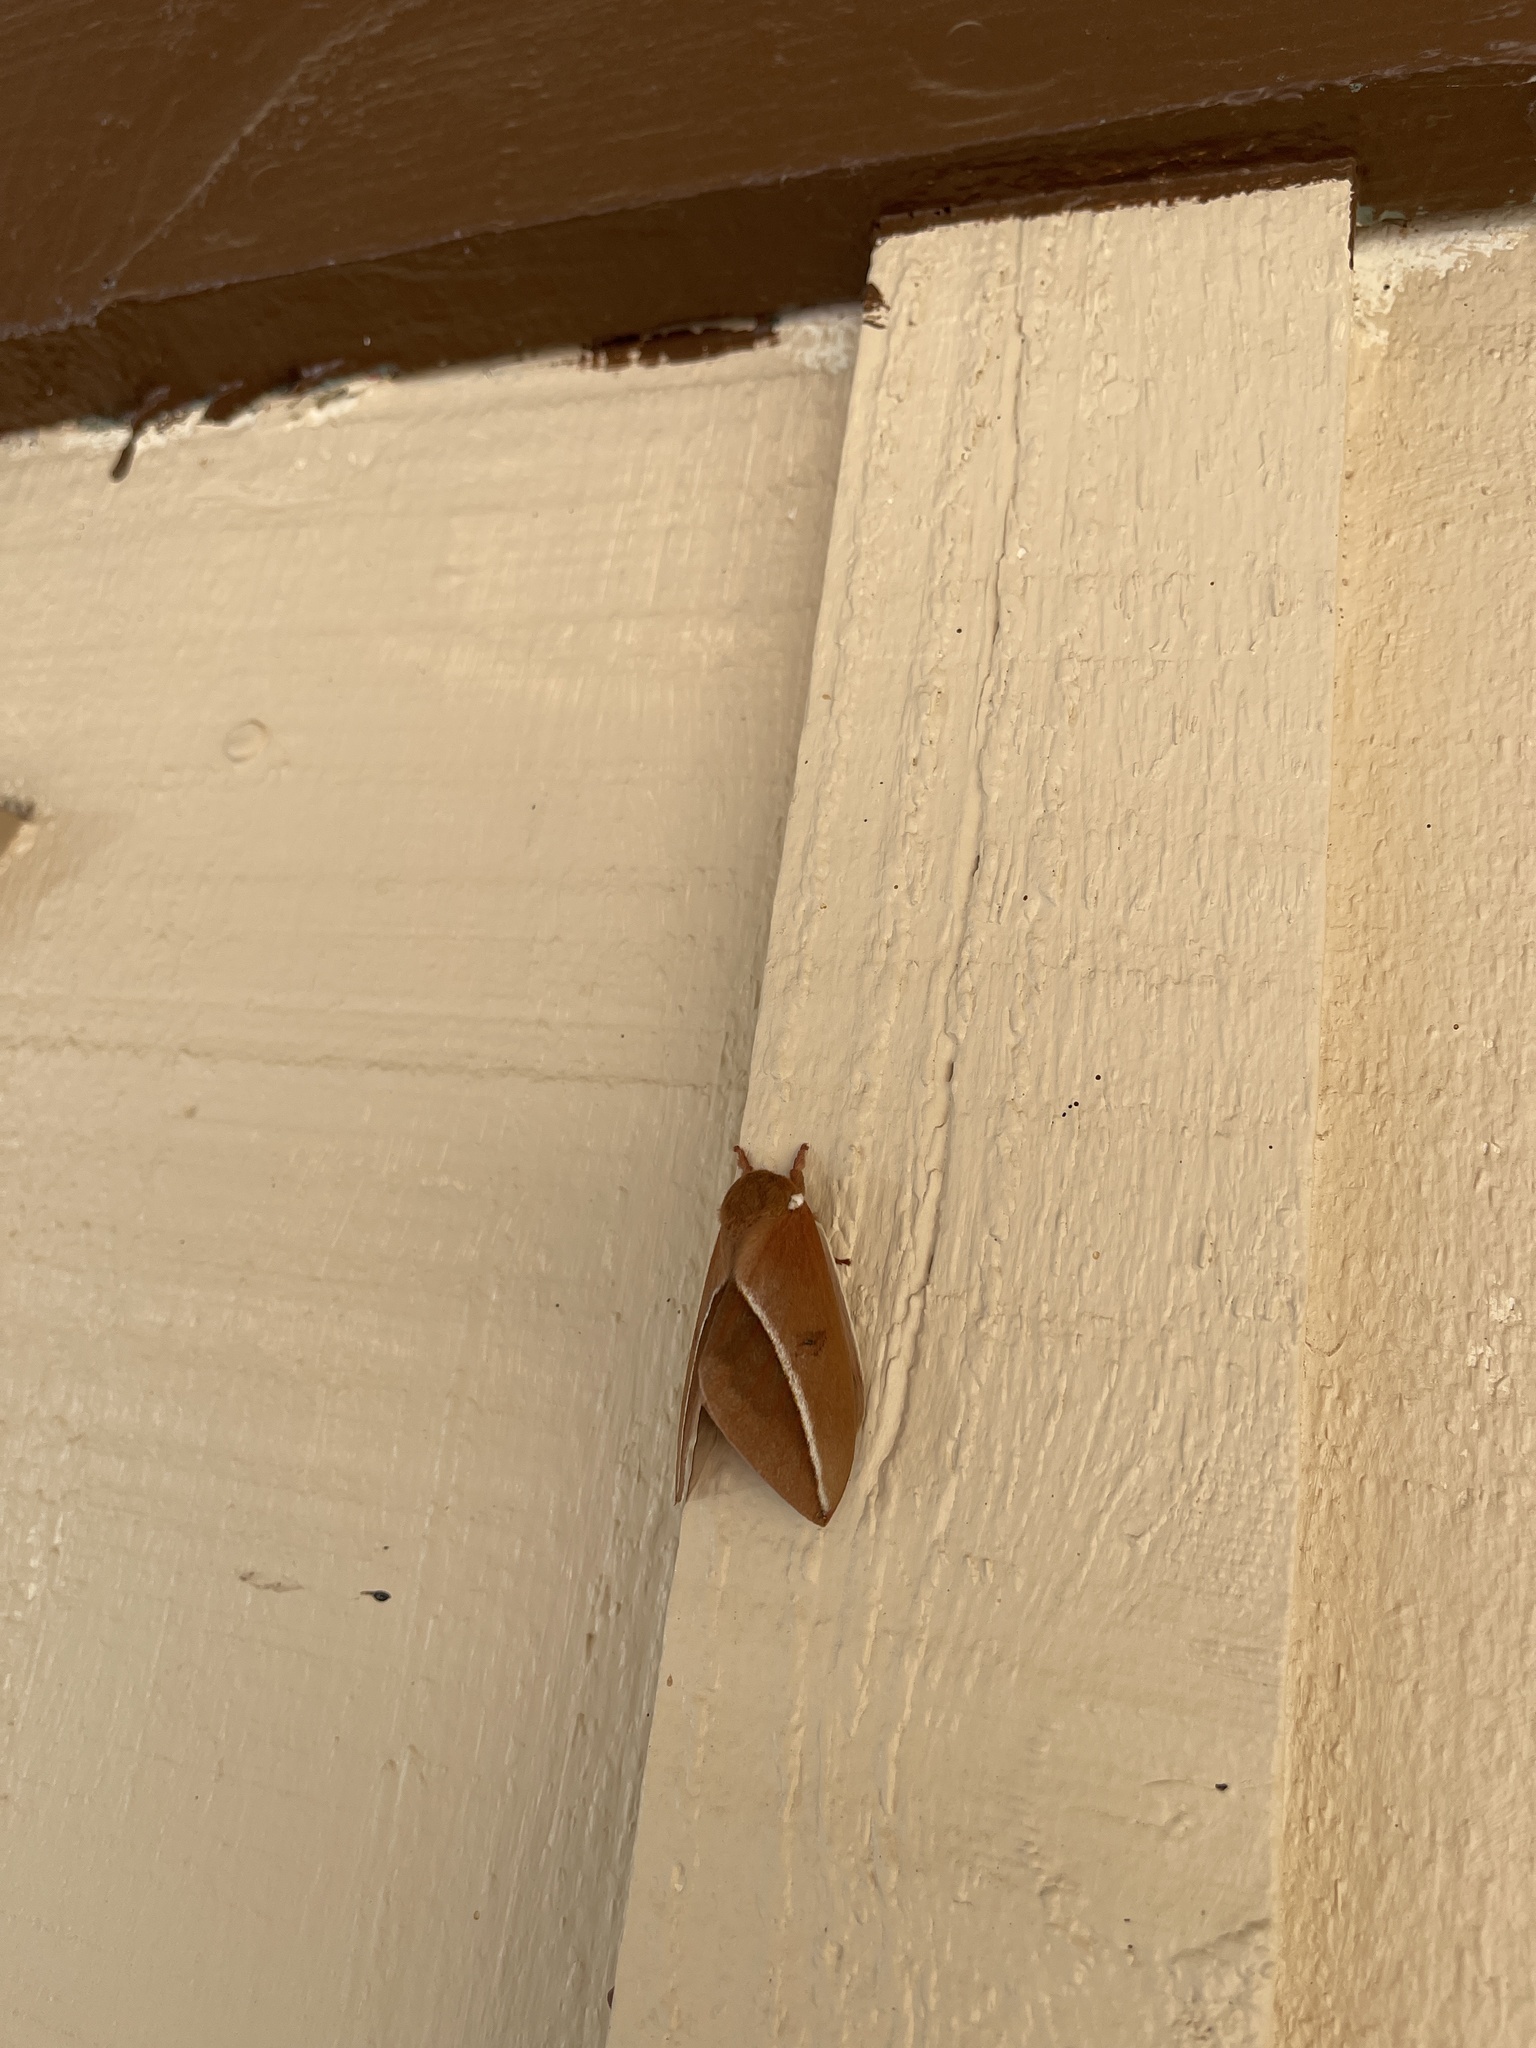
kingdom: Animalia
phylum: Arthropoda
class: Insecta
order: Lepidoptera
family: Saturniidae
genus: Automeris
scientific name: Automeris zephyria
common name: Zephyr eyed silkmoth
